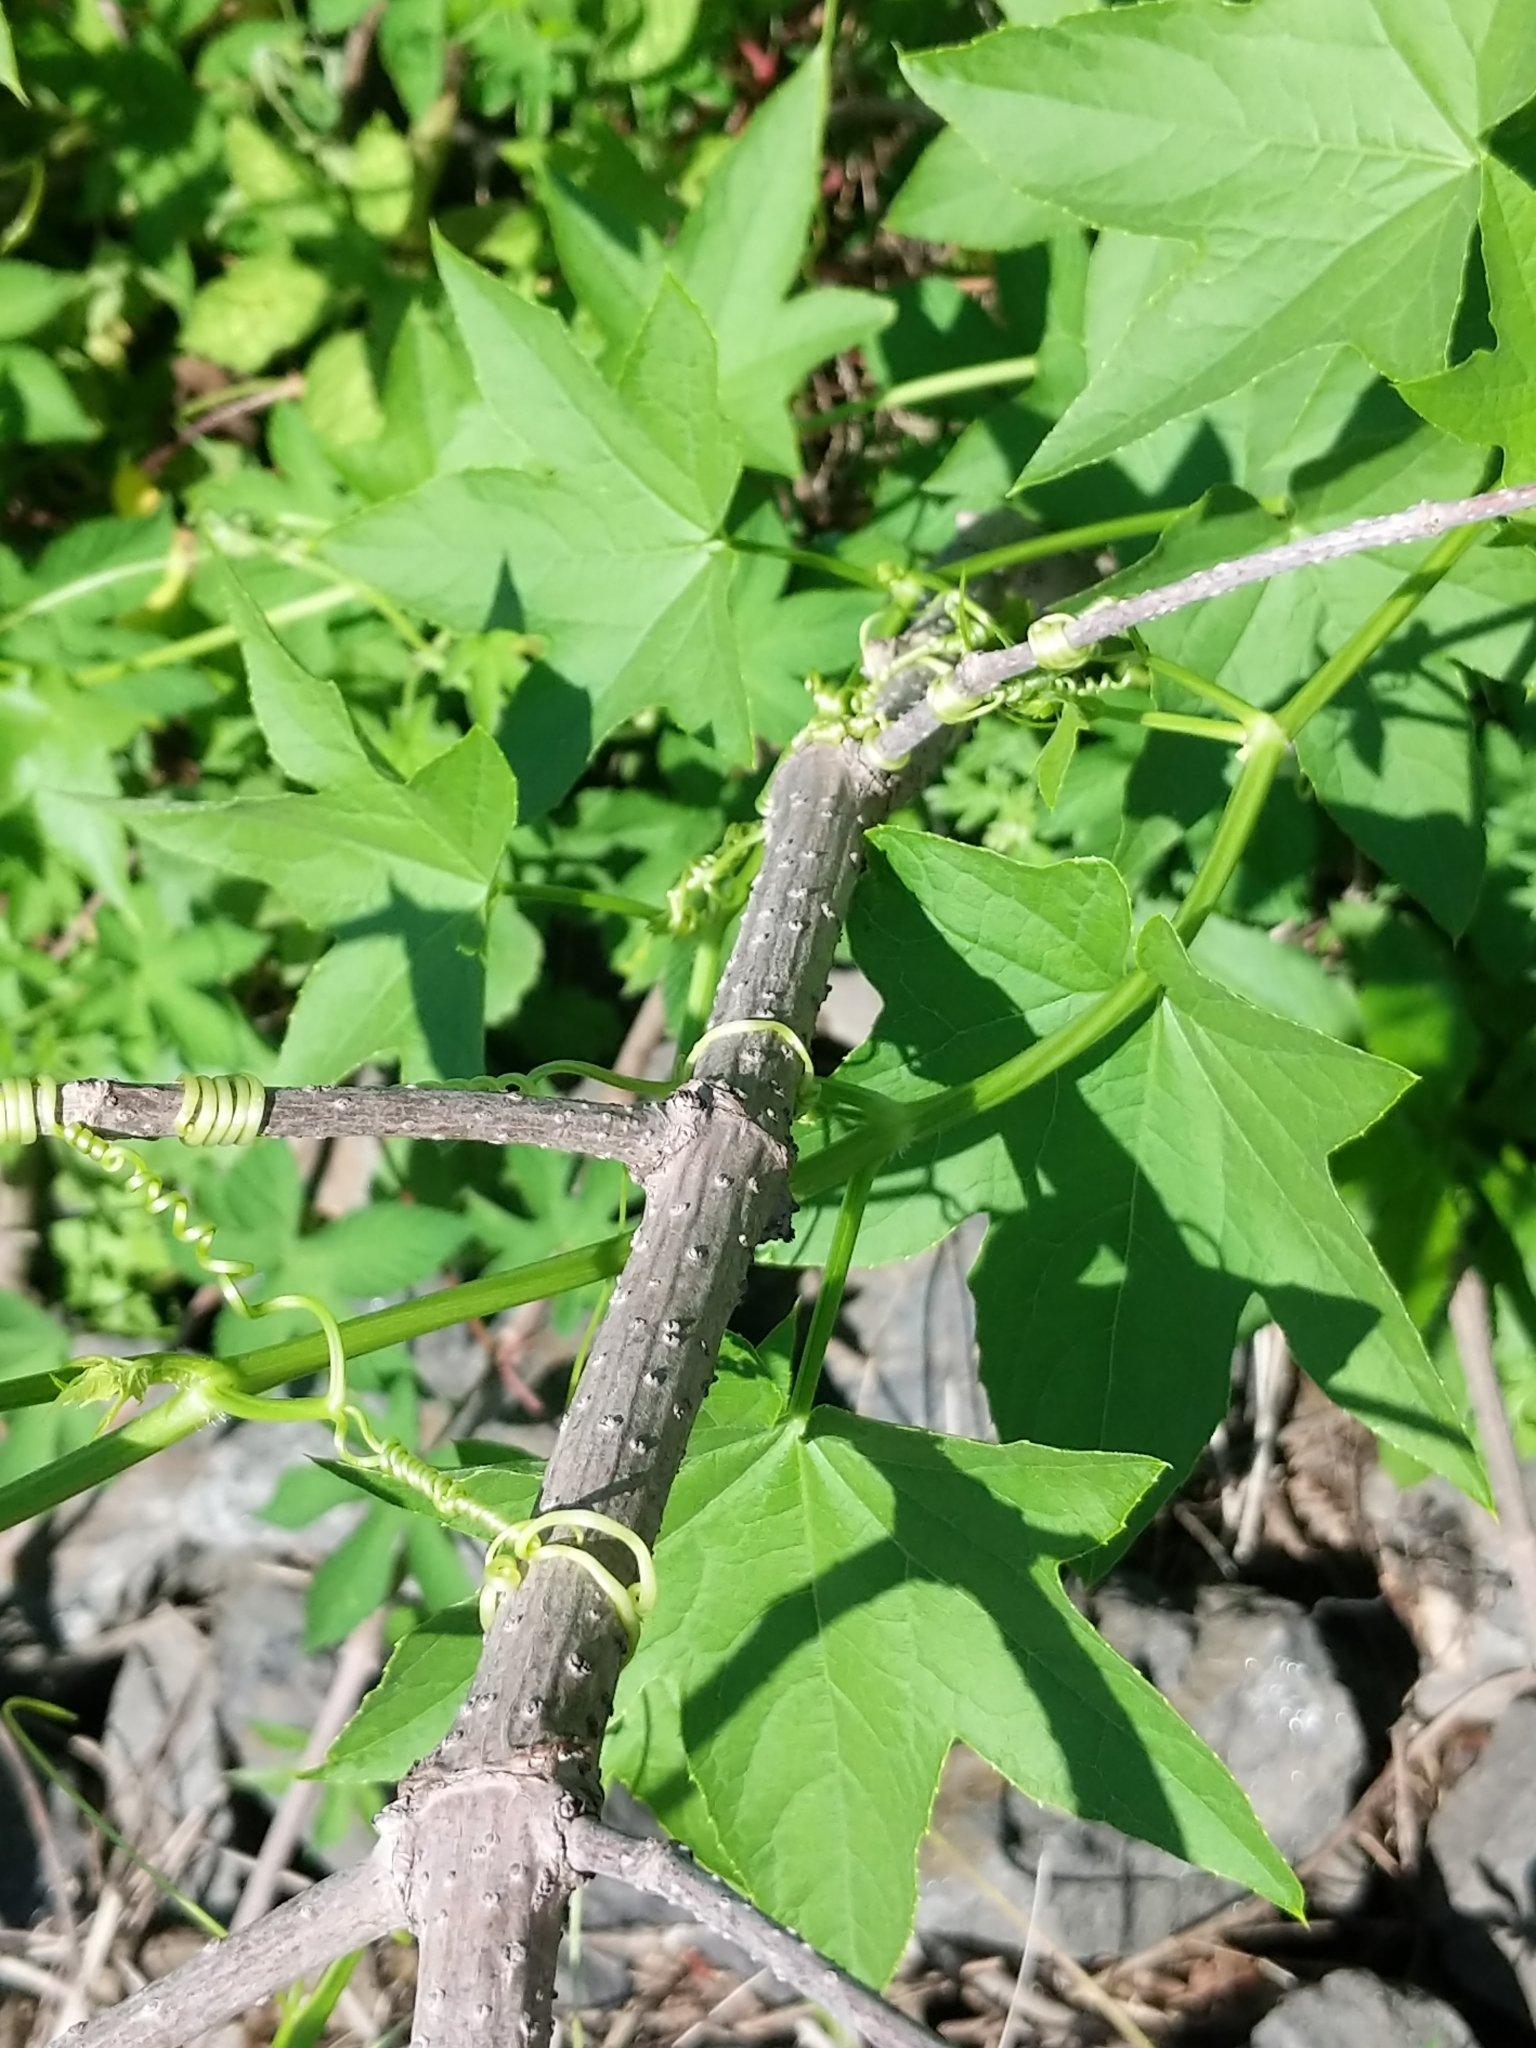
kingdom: Plantae
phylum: Tracheophyta
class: Magnoliopsida
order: Cucurbitales
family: Cucurbitaceae
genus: Echinocystis
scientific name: Echinocystis lobata
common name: Wild cucumber
